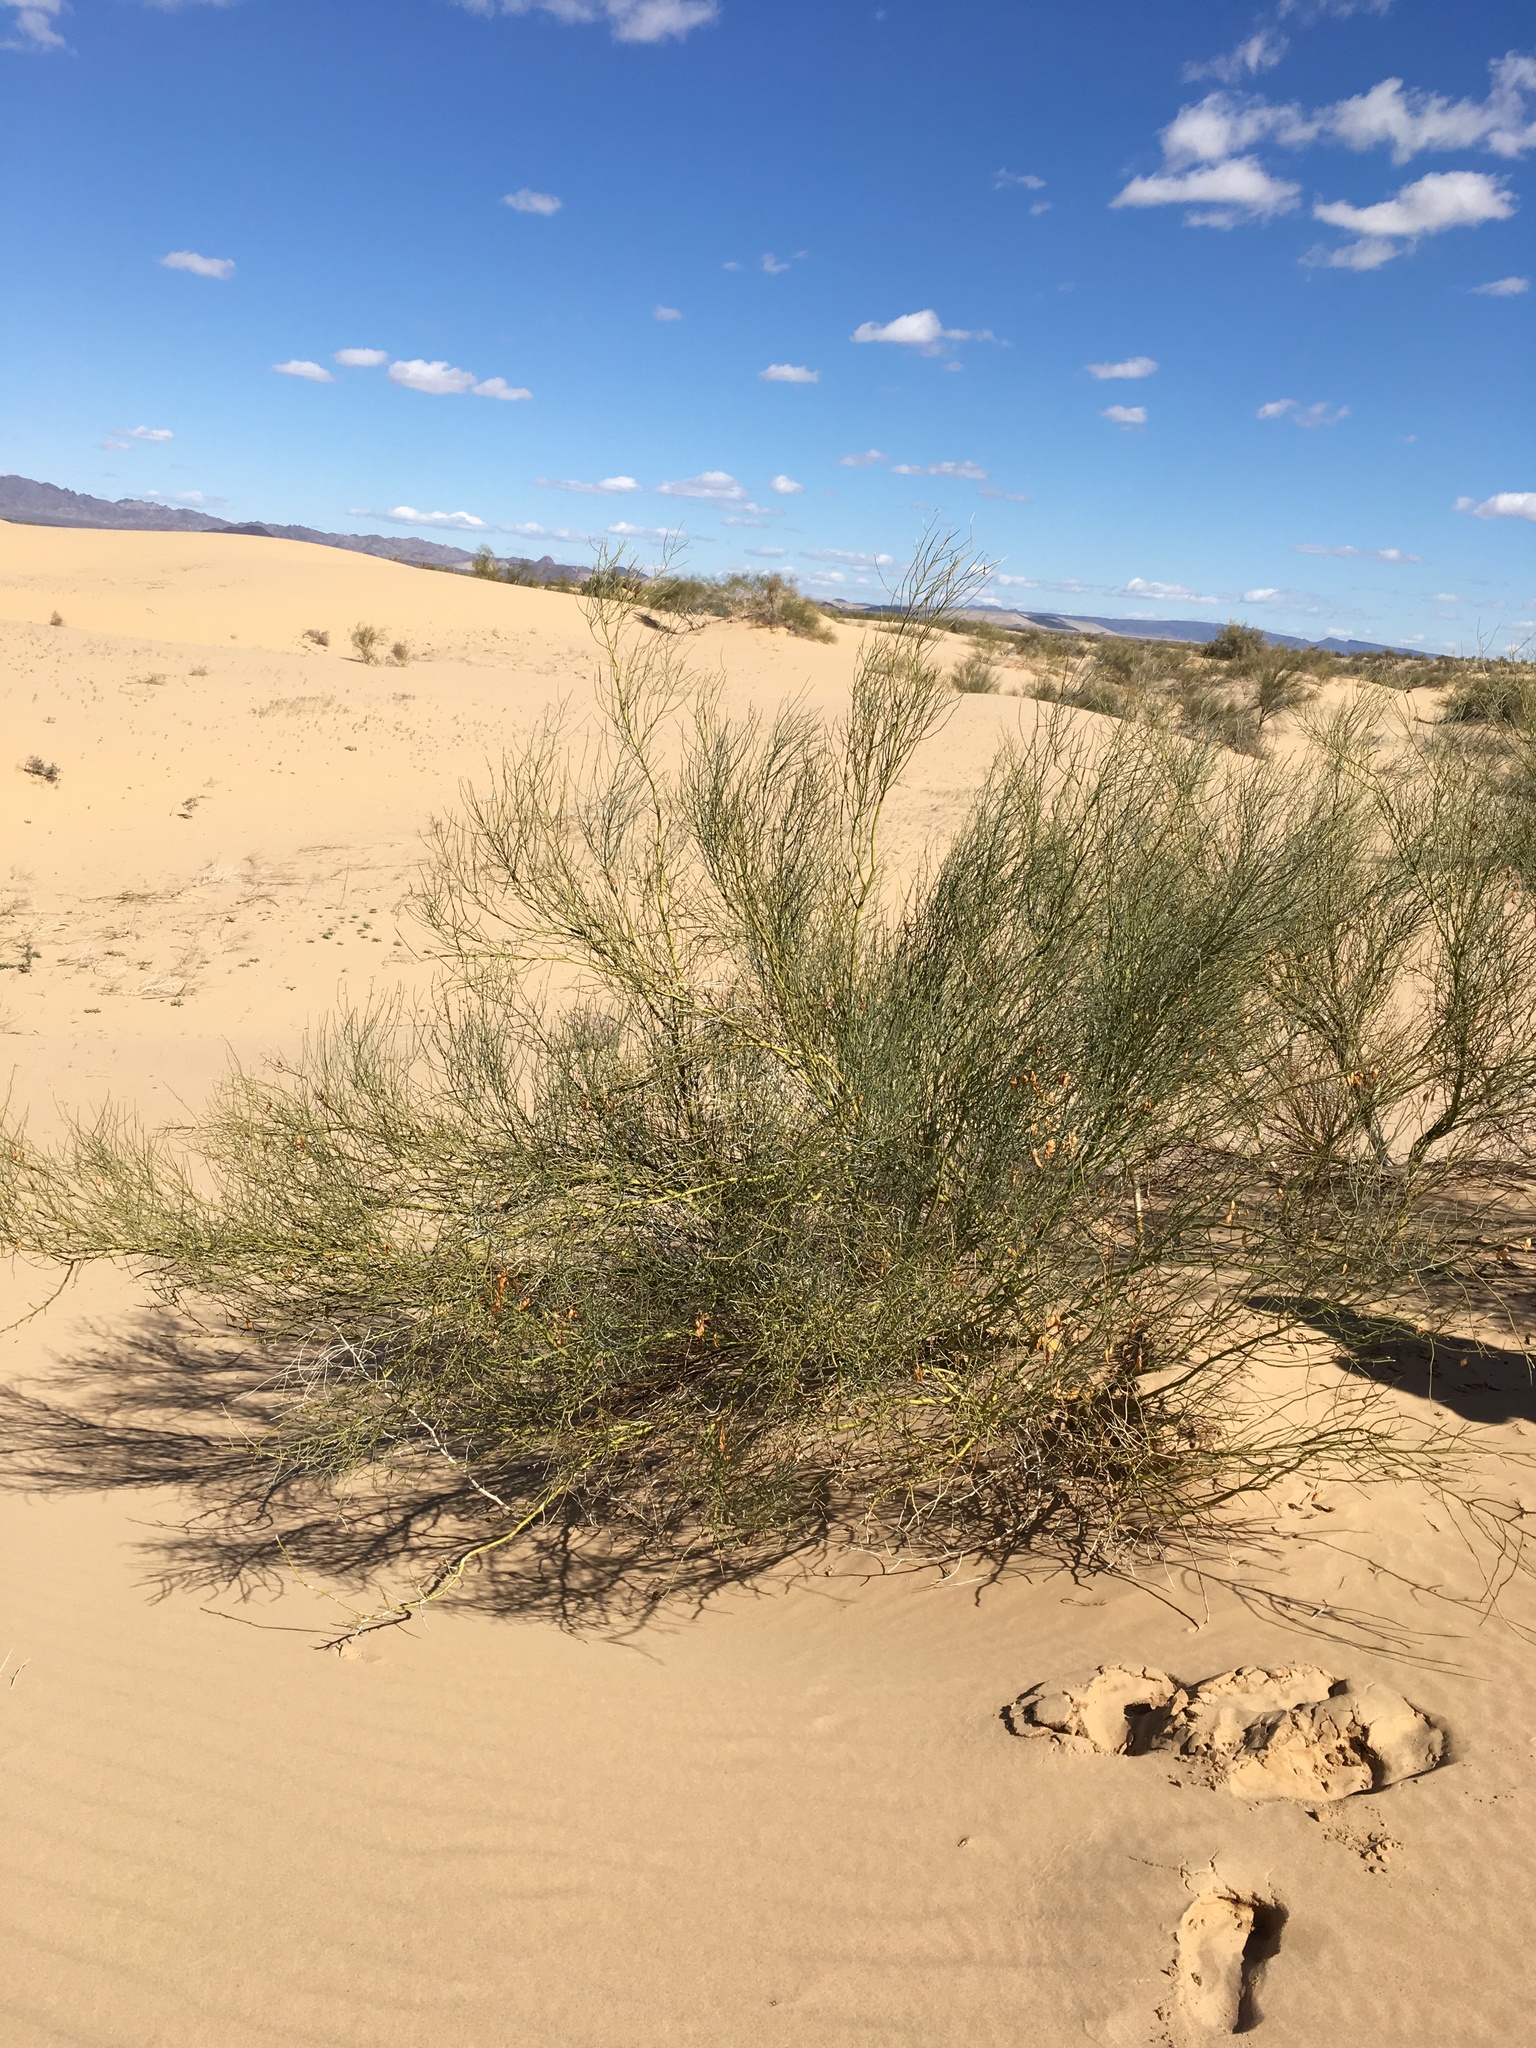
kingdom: Plantae
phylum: Tracheophyta
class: Magnoliopsida
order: Fabales
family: Fabaceae
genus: Parkinsonia
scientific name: Parkinsonia florida
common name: Blue paloverde
